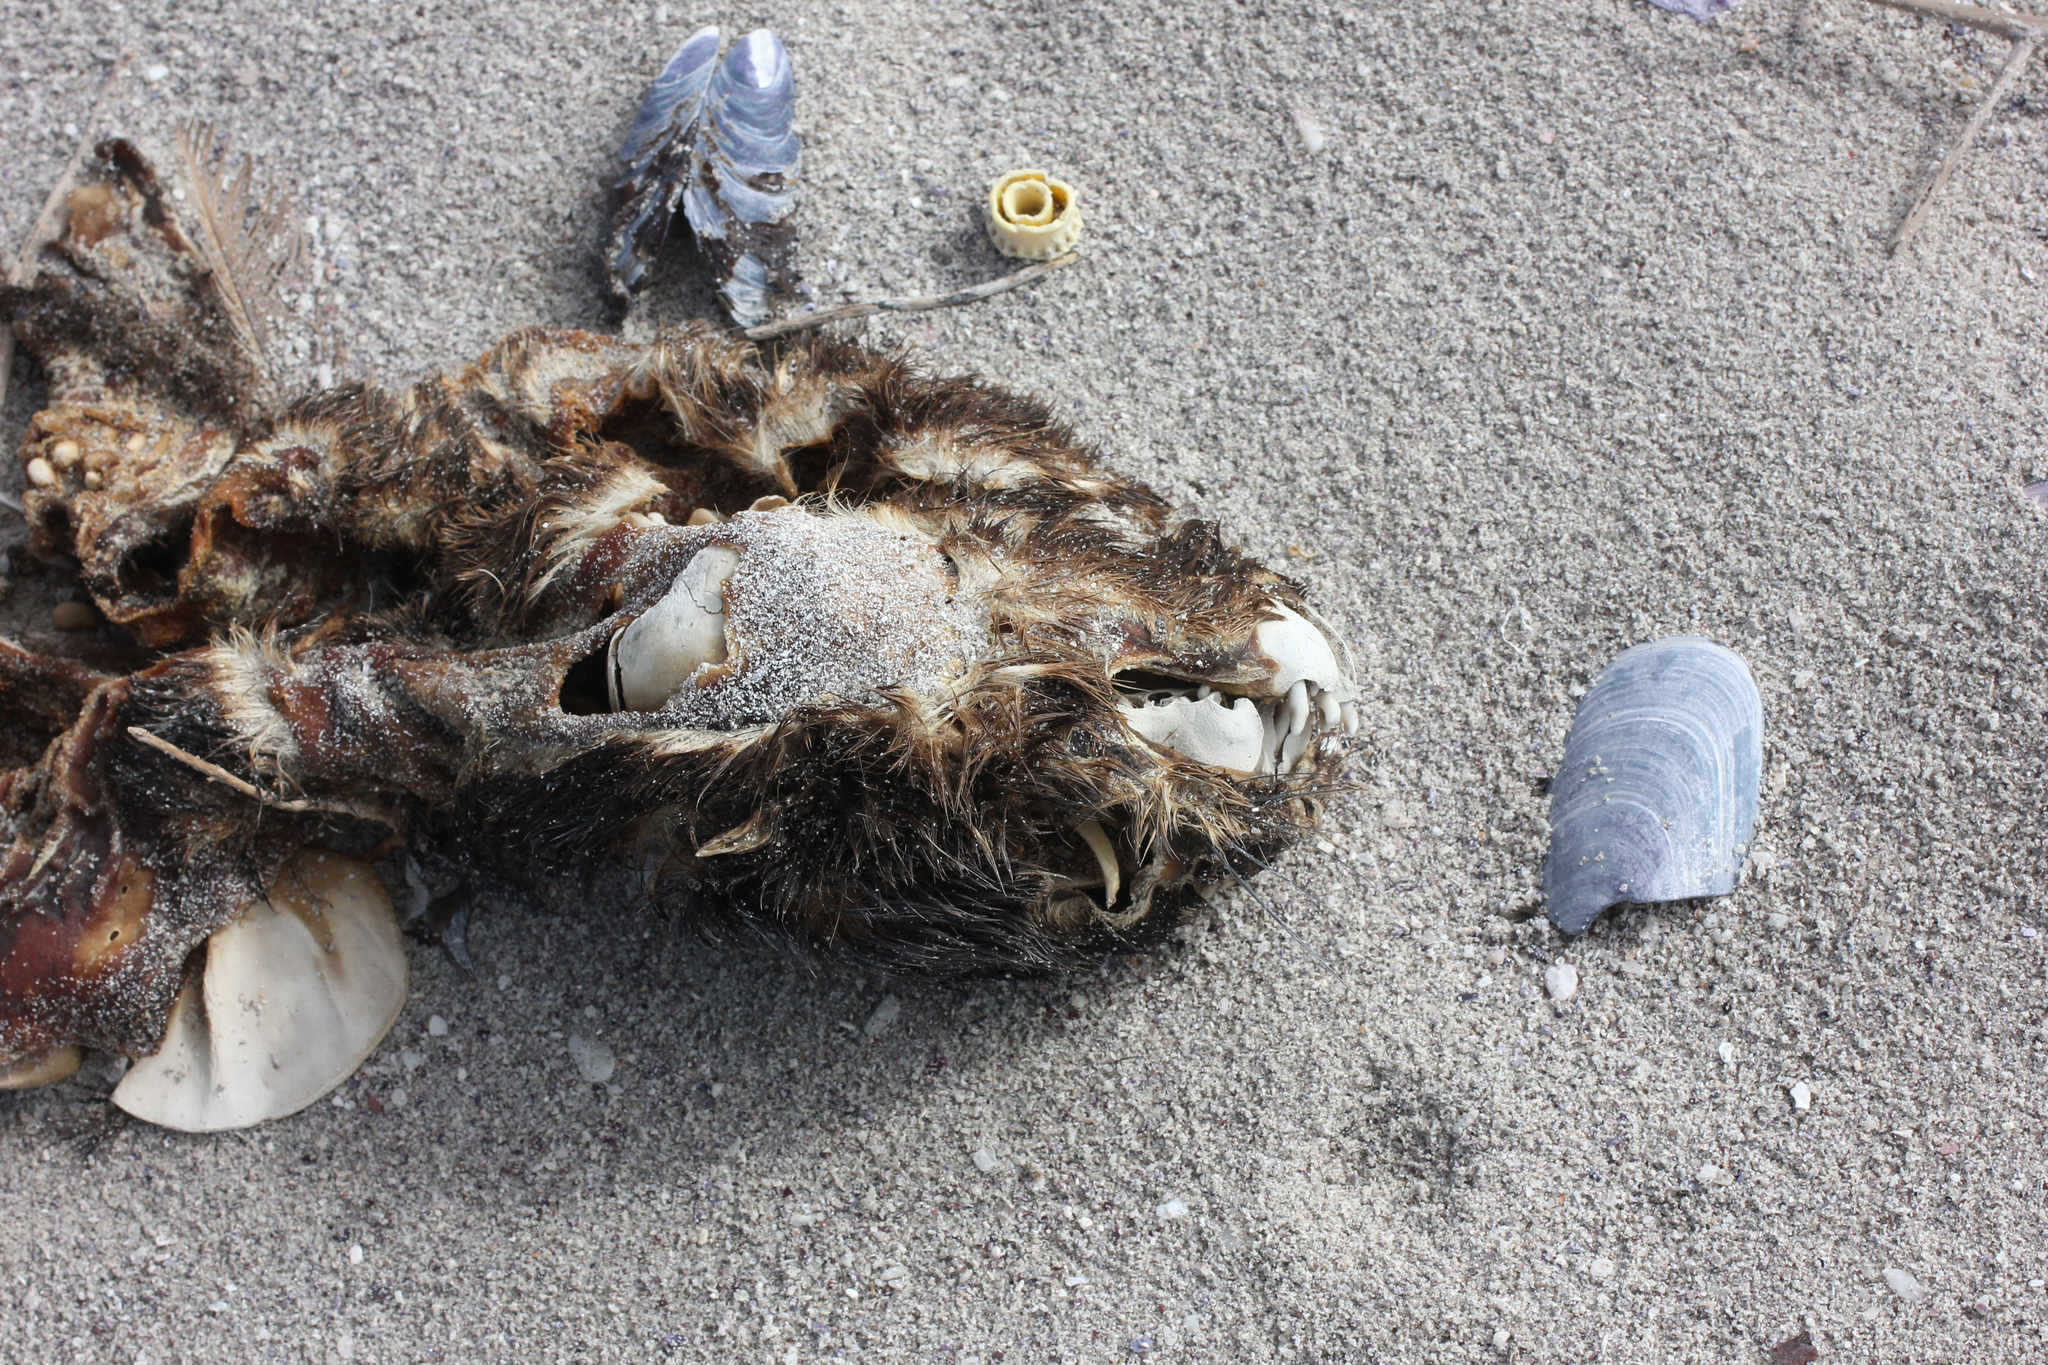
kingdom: Animalia
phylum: Chordata
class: Mammalia
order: Carnivora
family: Otariidae
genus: Arctocephalus
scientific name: Arctocephalus pusillus
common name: Brown fur seal
